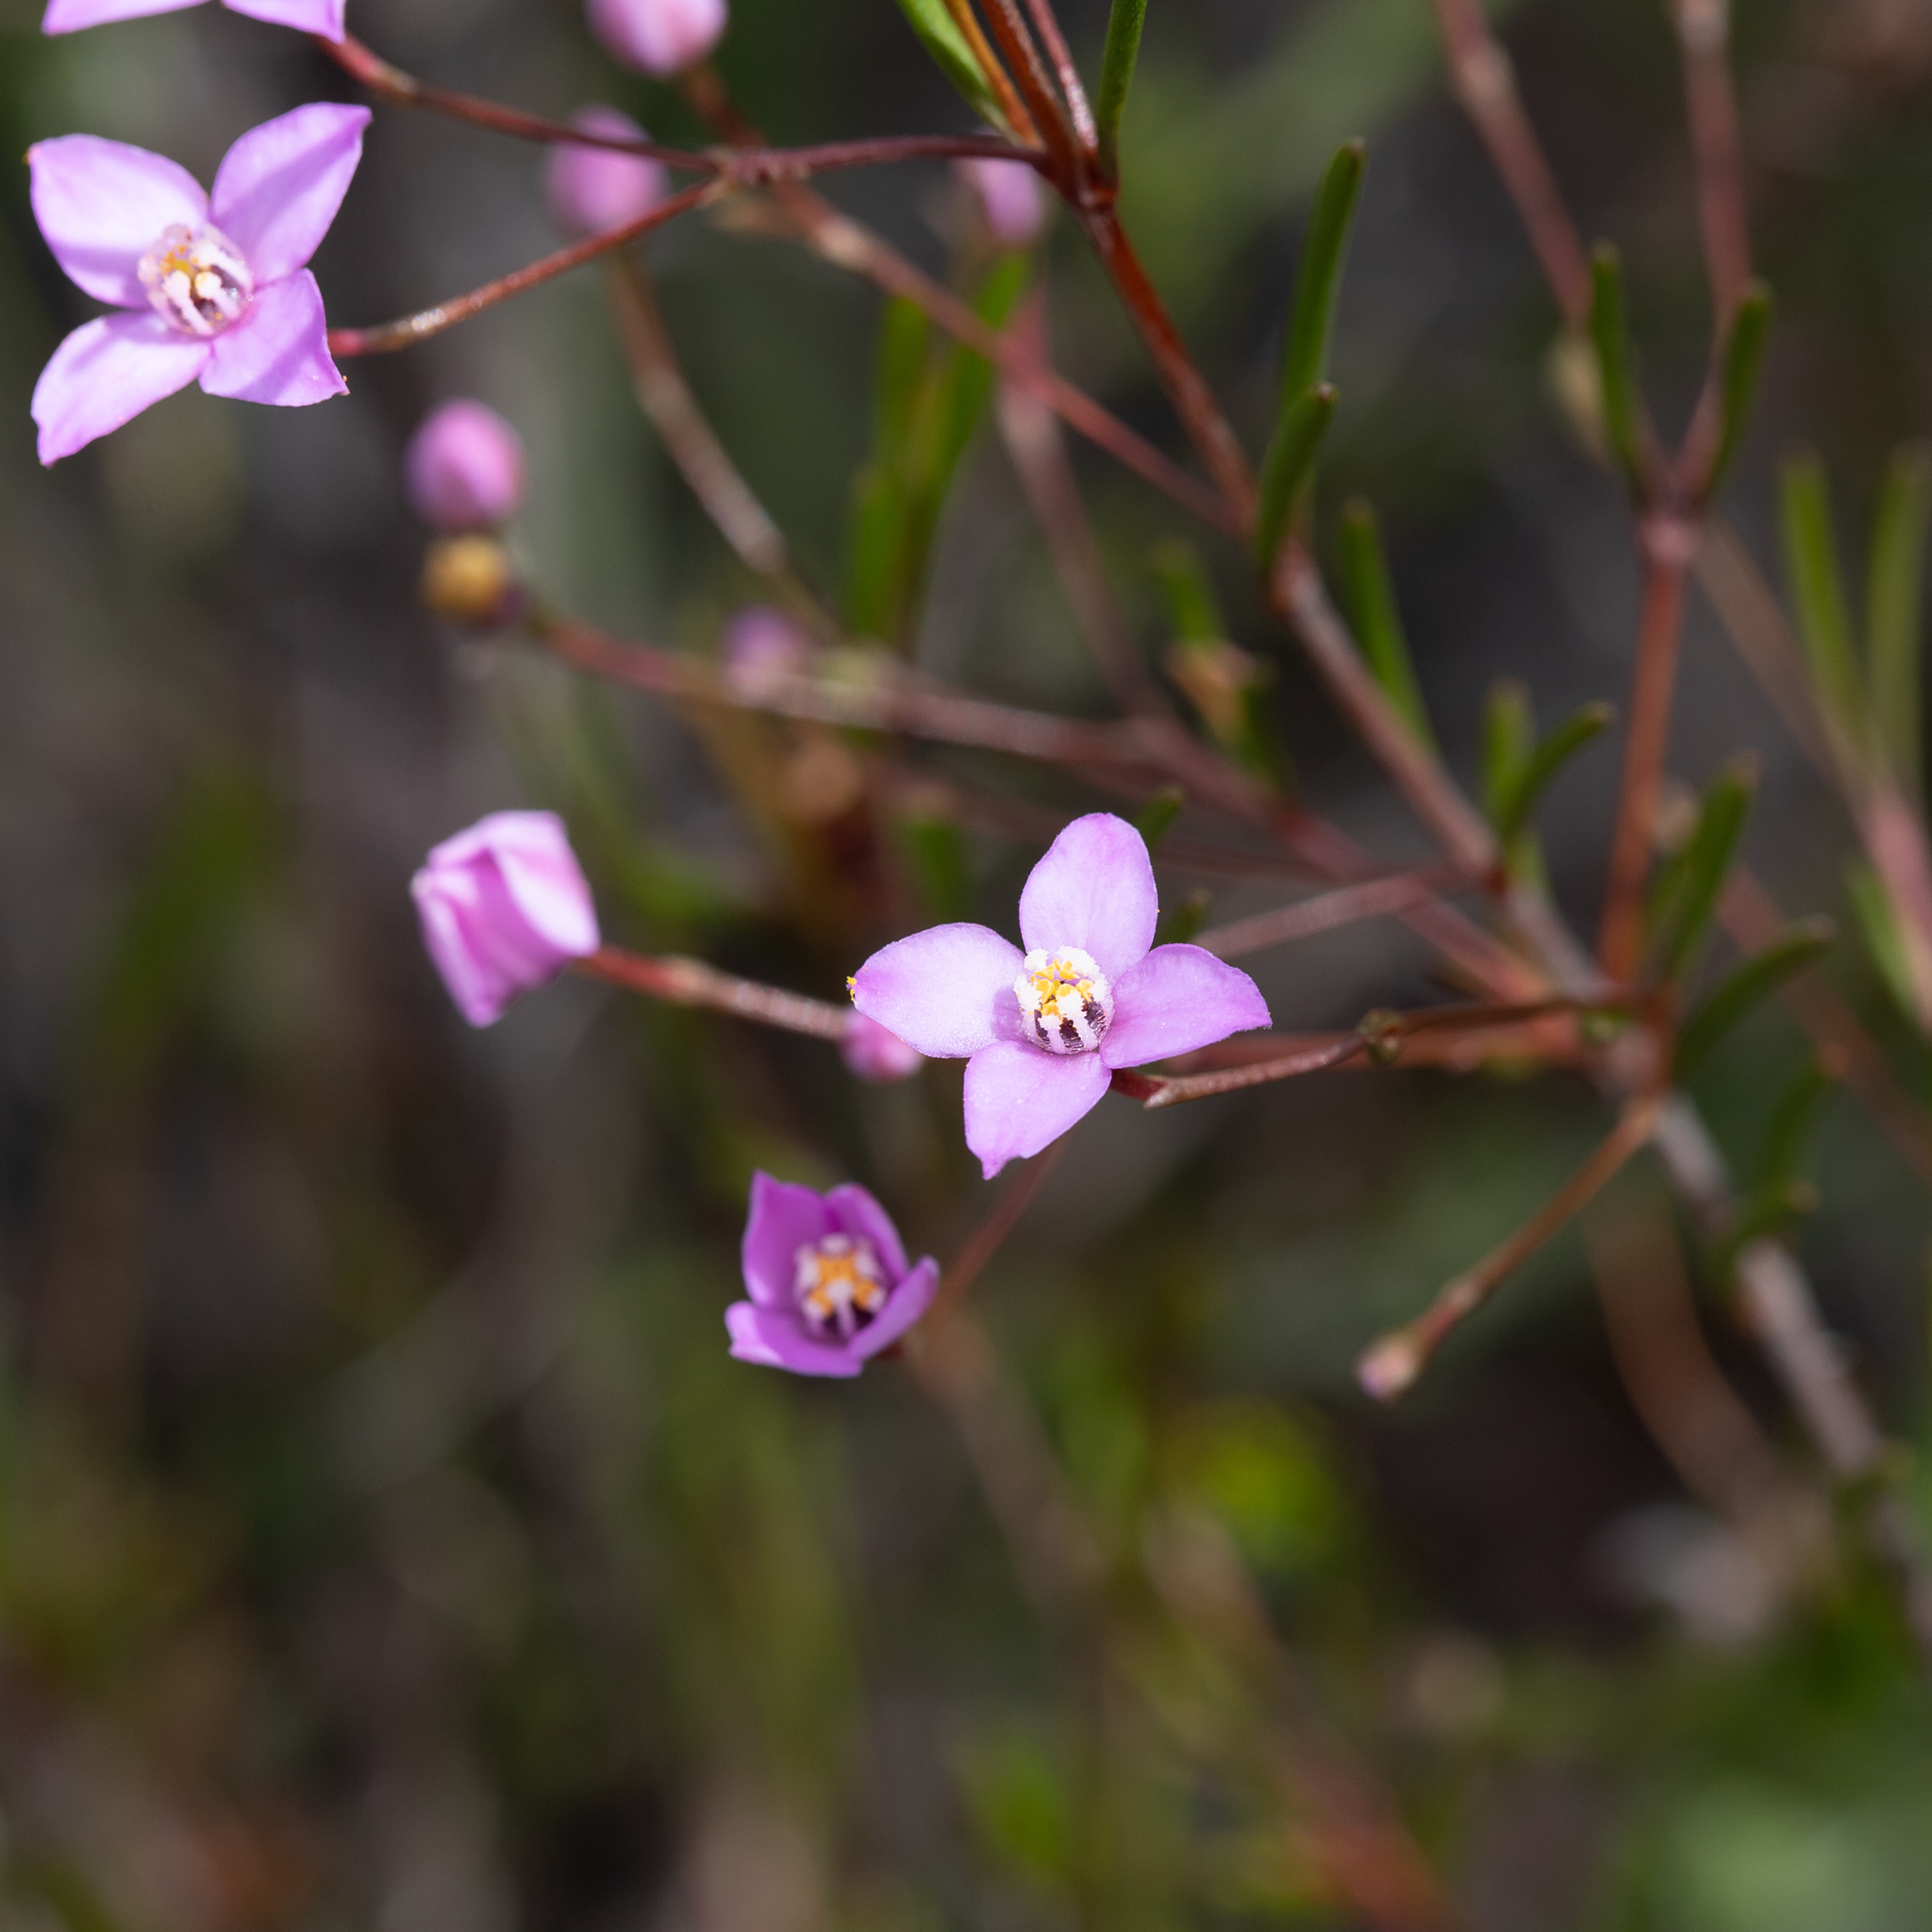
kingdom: Plantae
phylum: Tracheophyta
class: Magnoliopsida
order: Sapindales
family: Rutaceae
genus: Boronia
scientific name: Boronia filifolia
